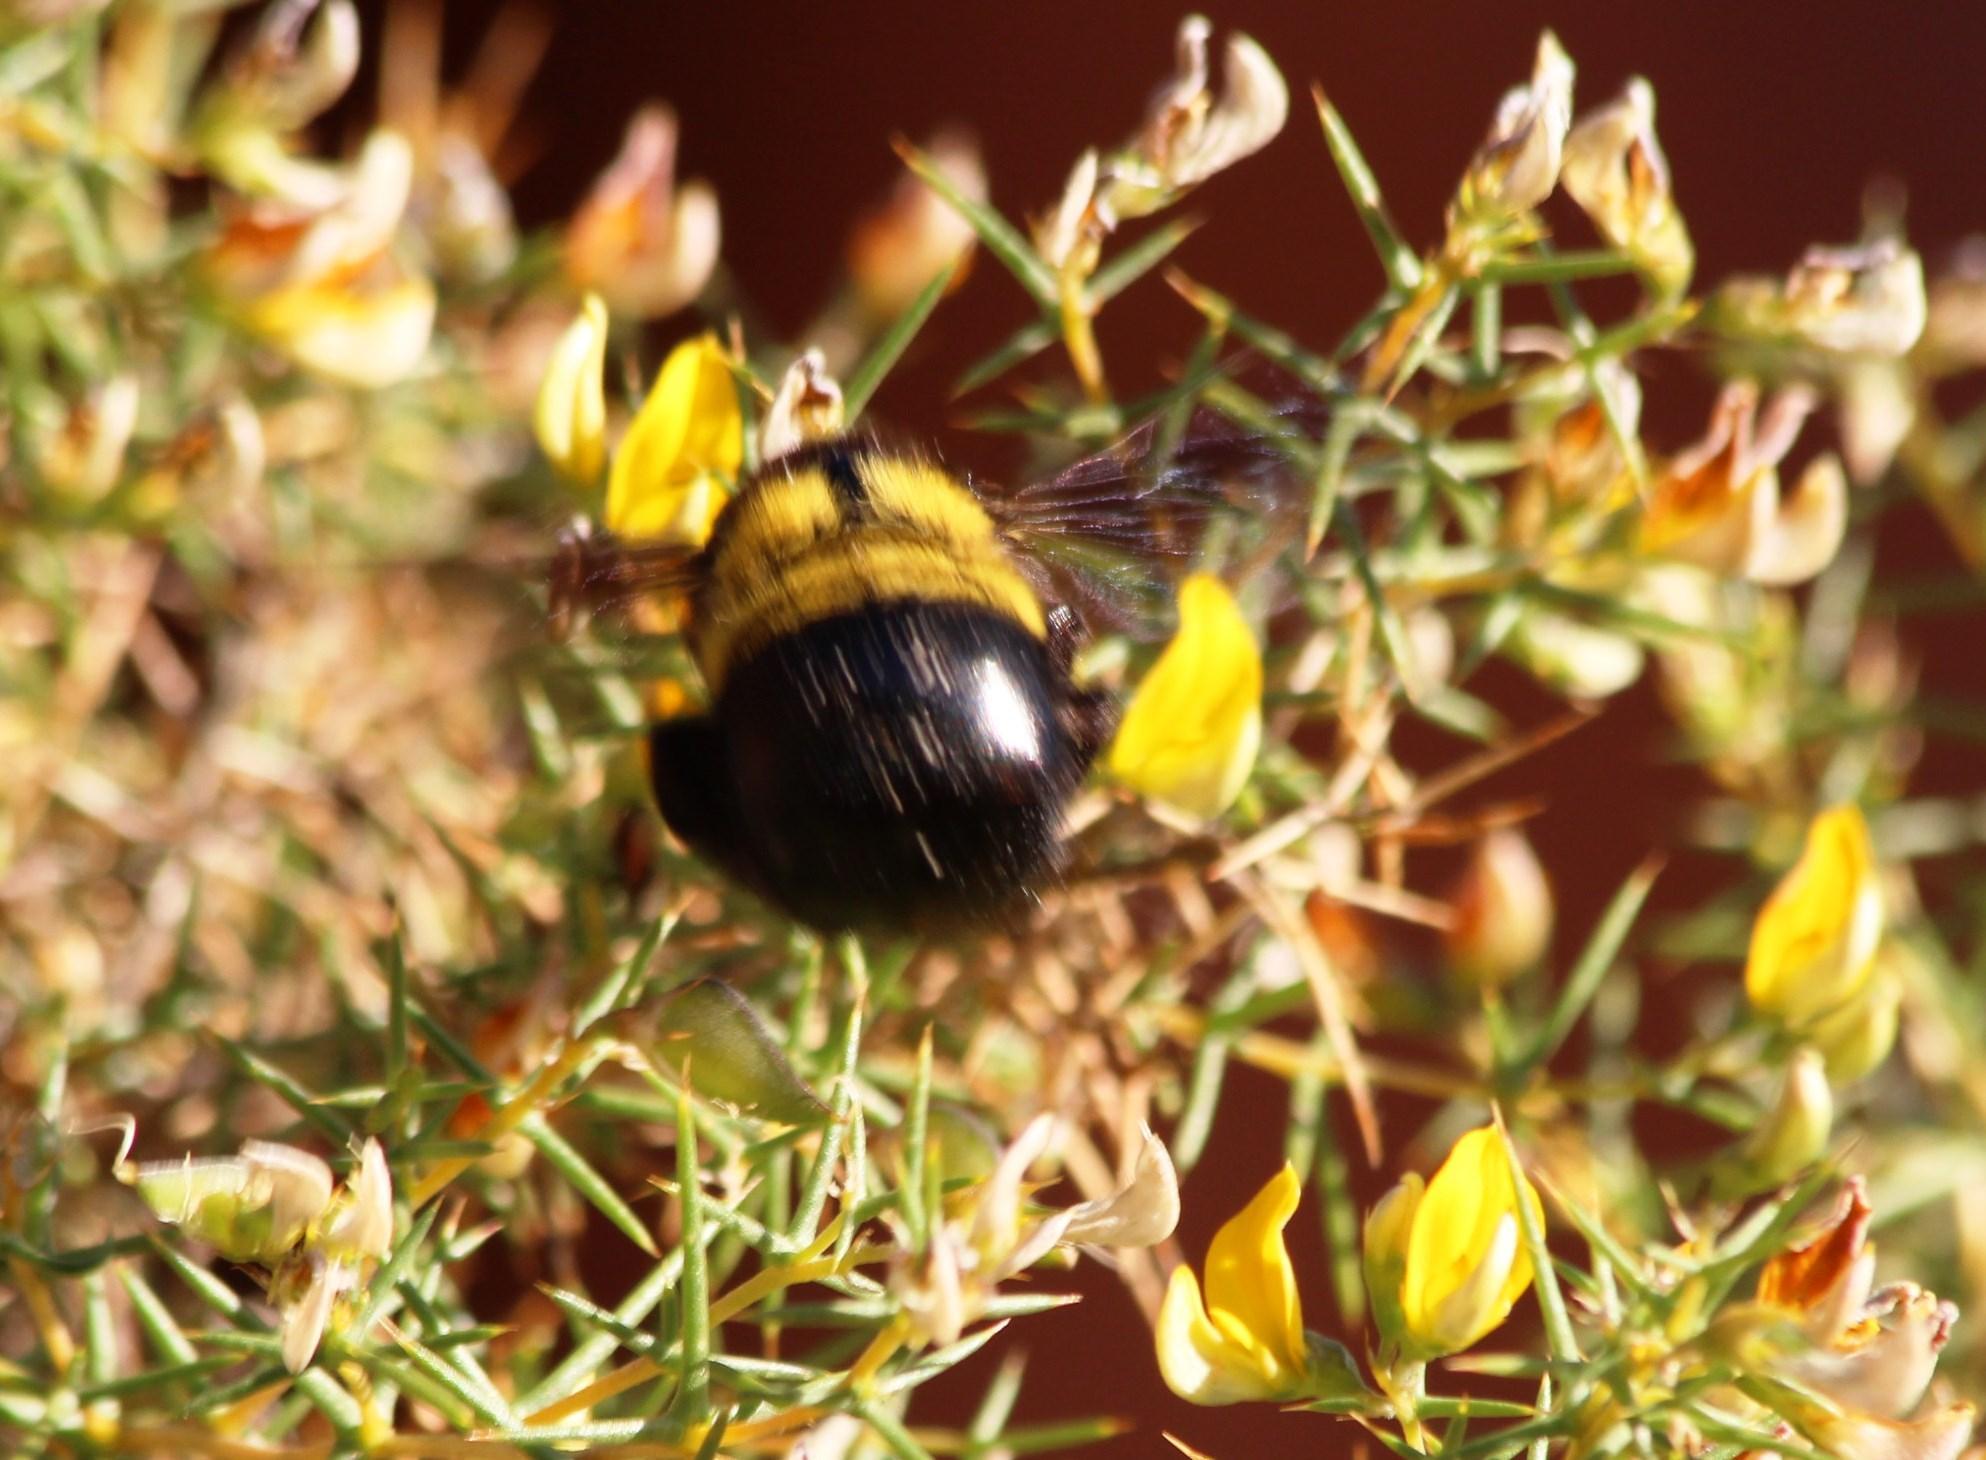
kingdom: Animalia
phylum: Arthropoda
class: Insecta
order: Hymenoptera
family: Apidae
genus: Xylocopa
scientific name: Xylocopa caffra
